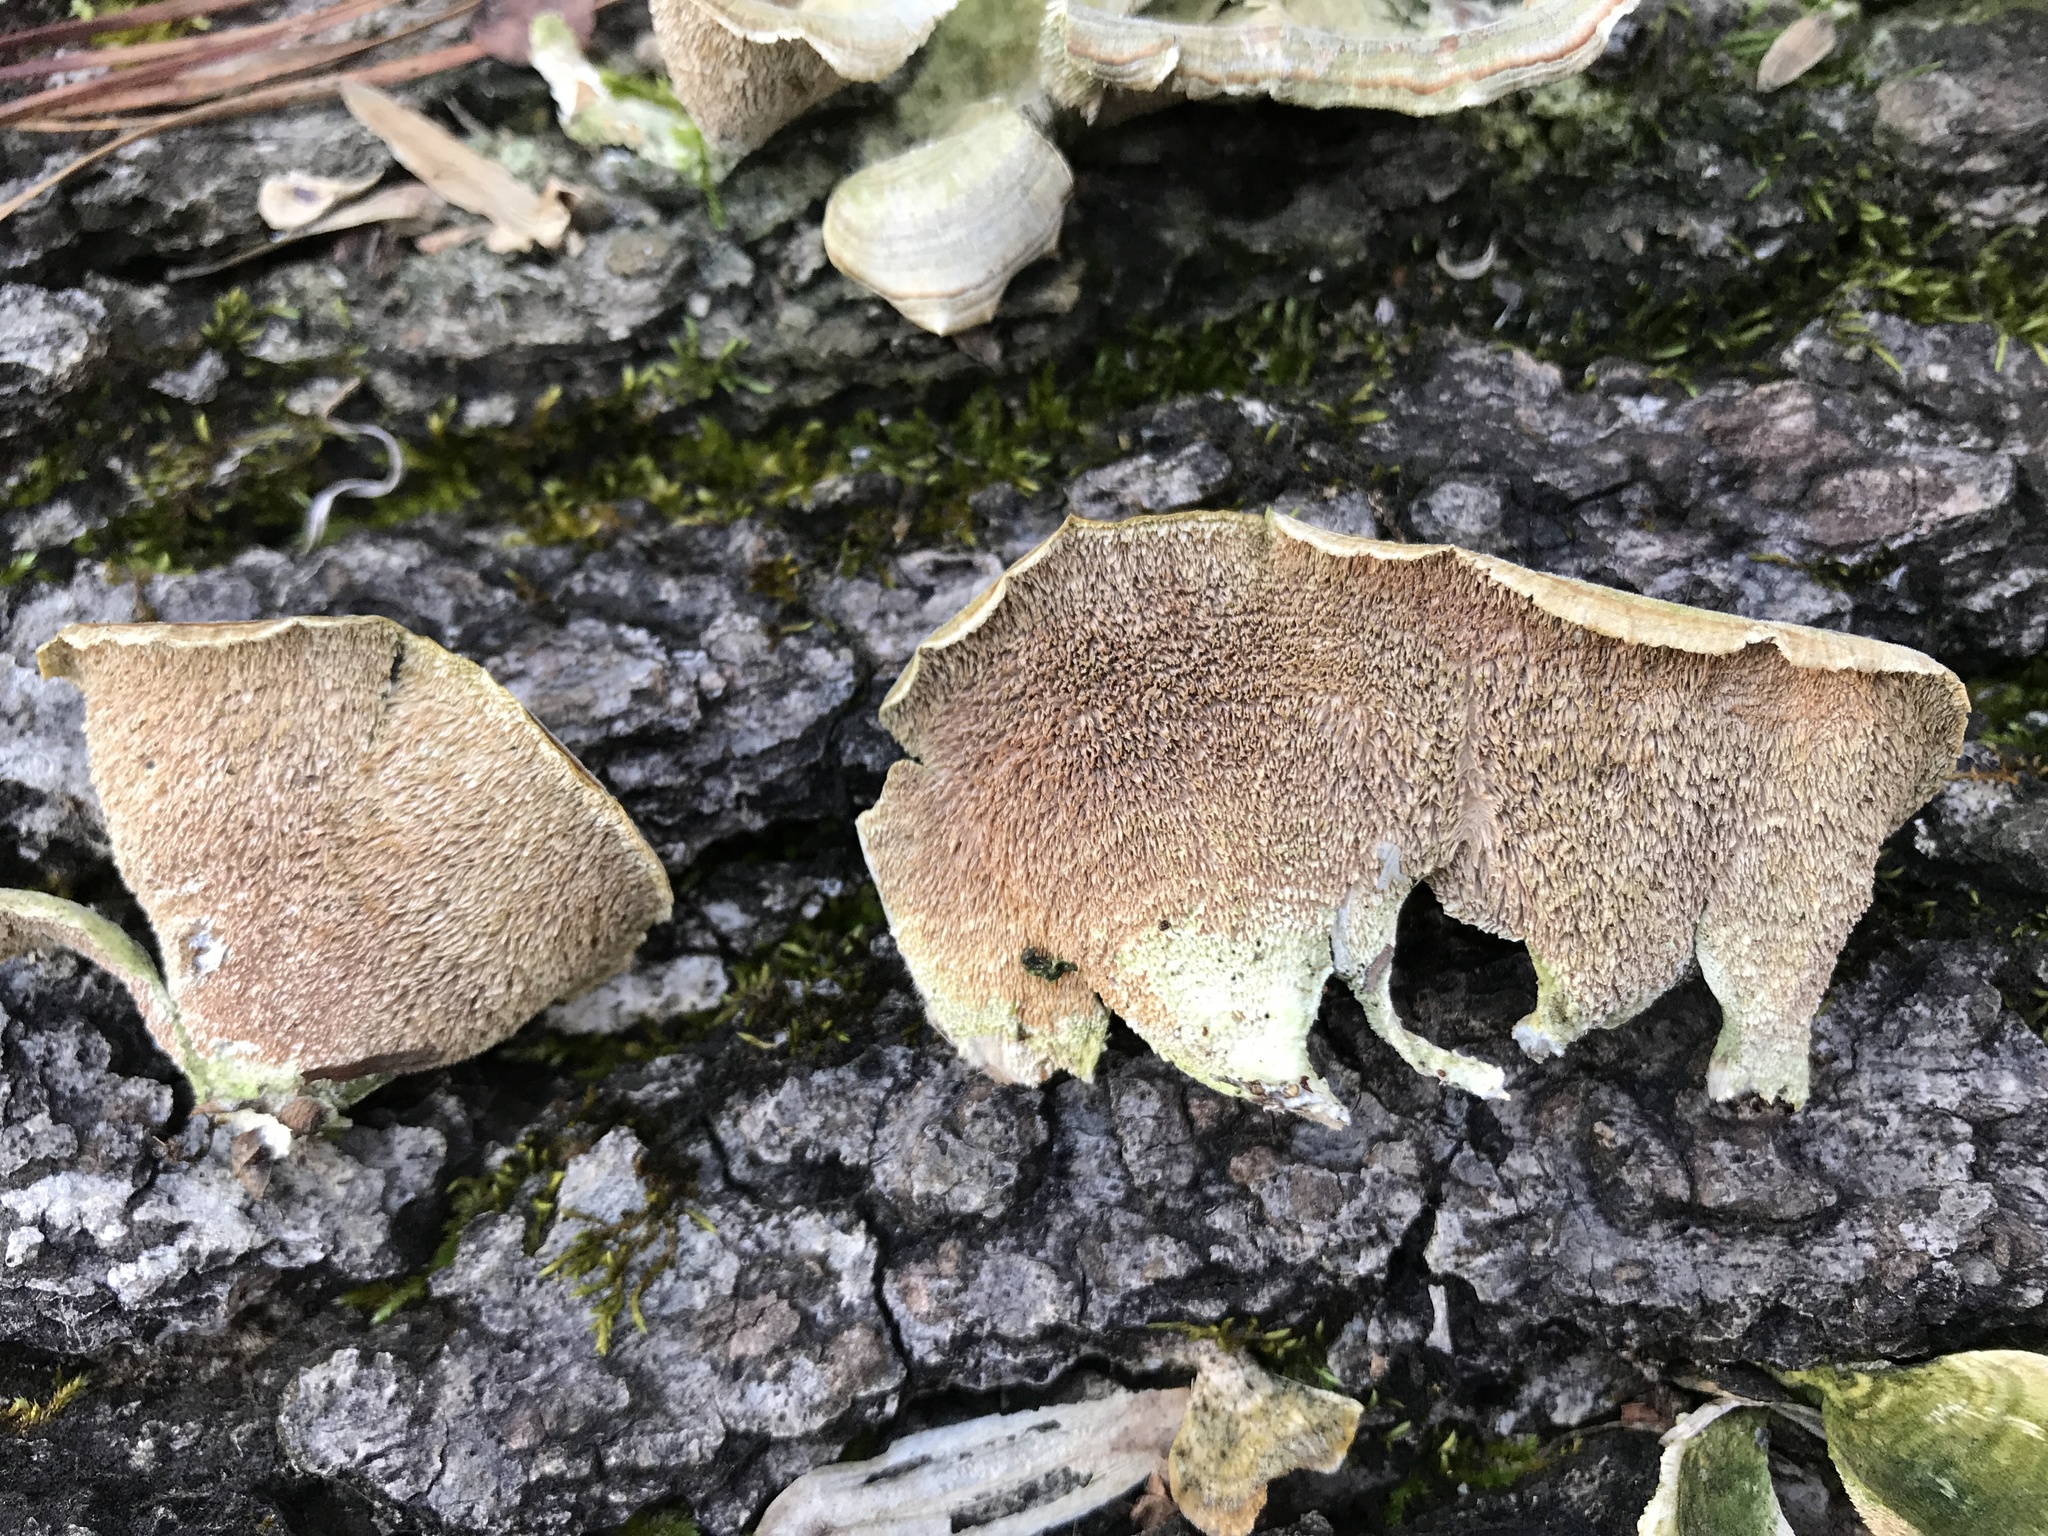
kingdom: Fungi
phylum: Basidiomycota
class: Agaricomycetes
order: Hymenochaetales
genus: Trichaptum
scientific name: Trichaptum biforme
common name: Violet-toothed polypore
